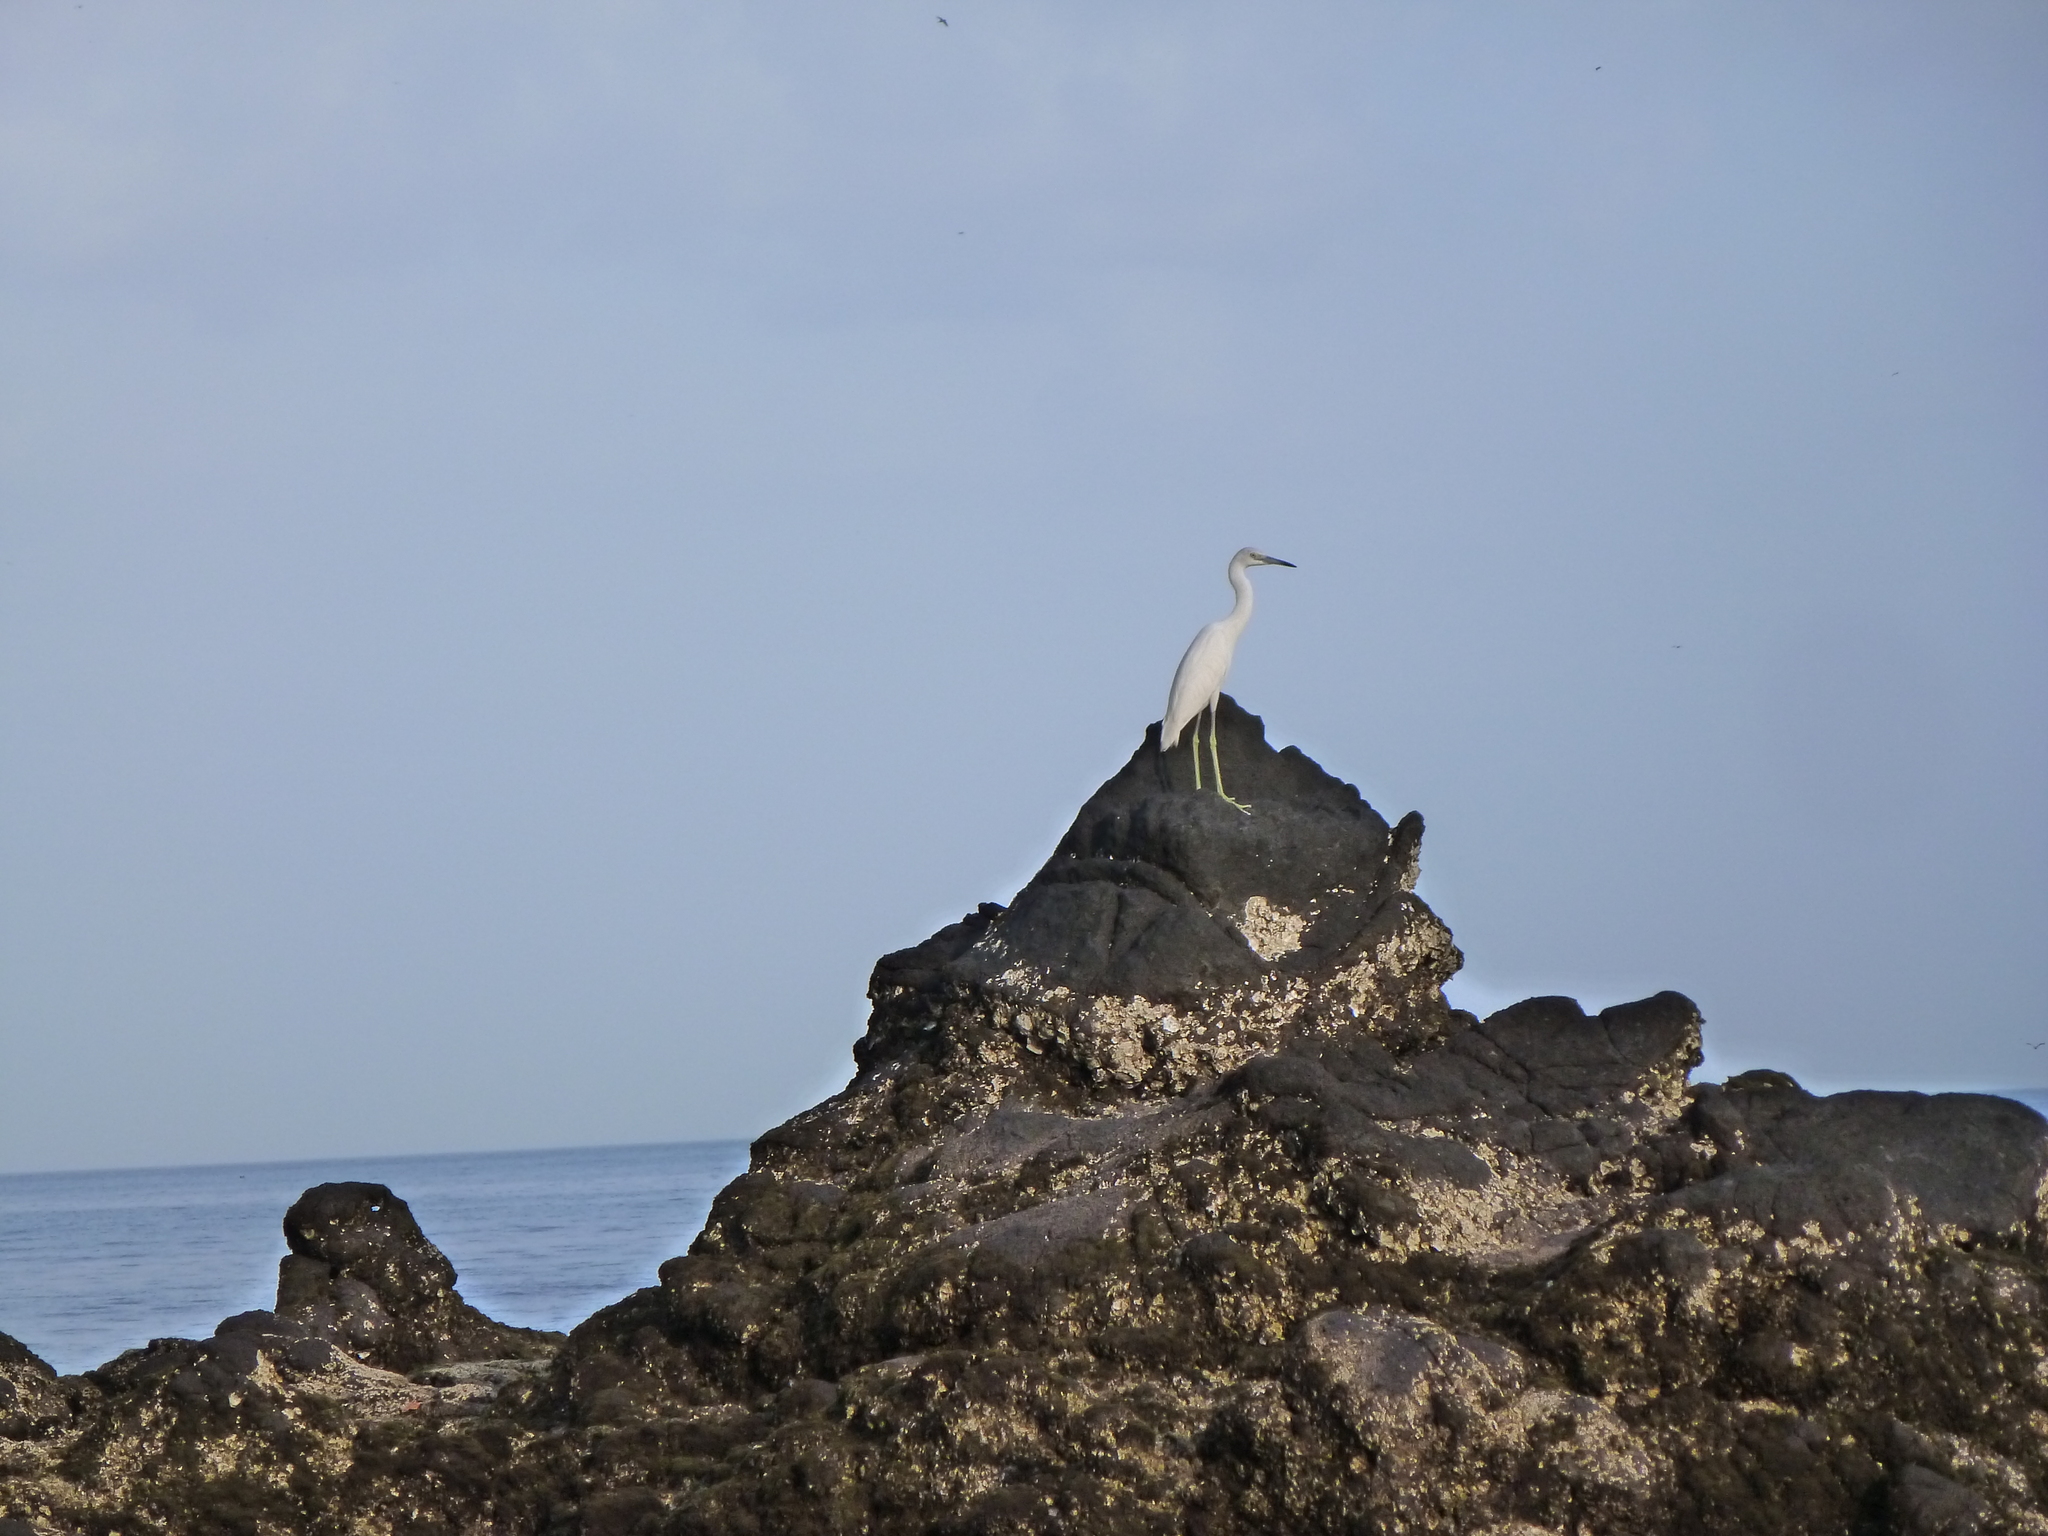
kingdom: Animalia
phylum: Chordata
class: Aves
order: Pelecaniformes
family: Ardeidae
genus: Egretta
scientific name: Egretta caerulea
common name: Little blue heron
